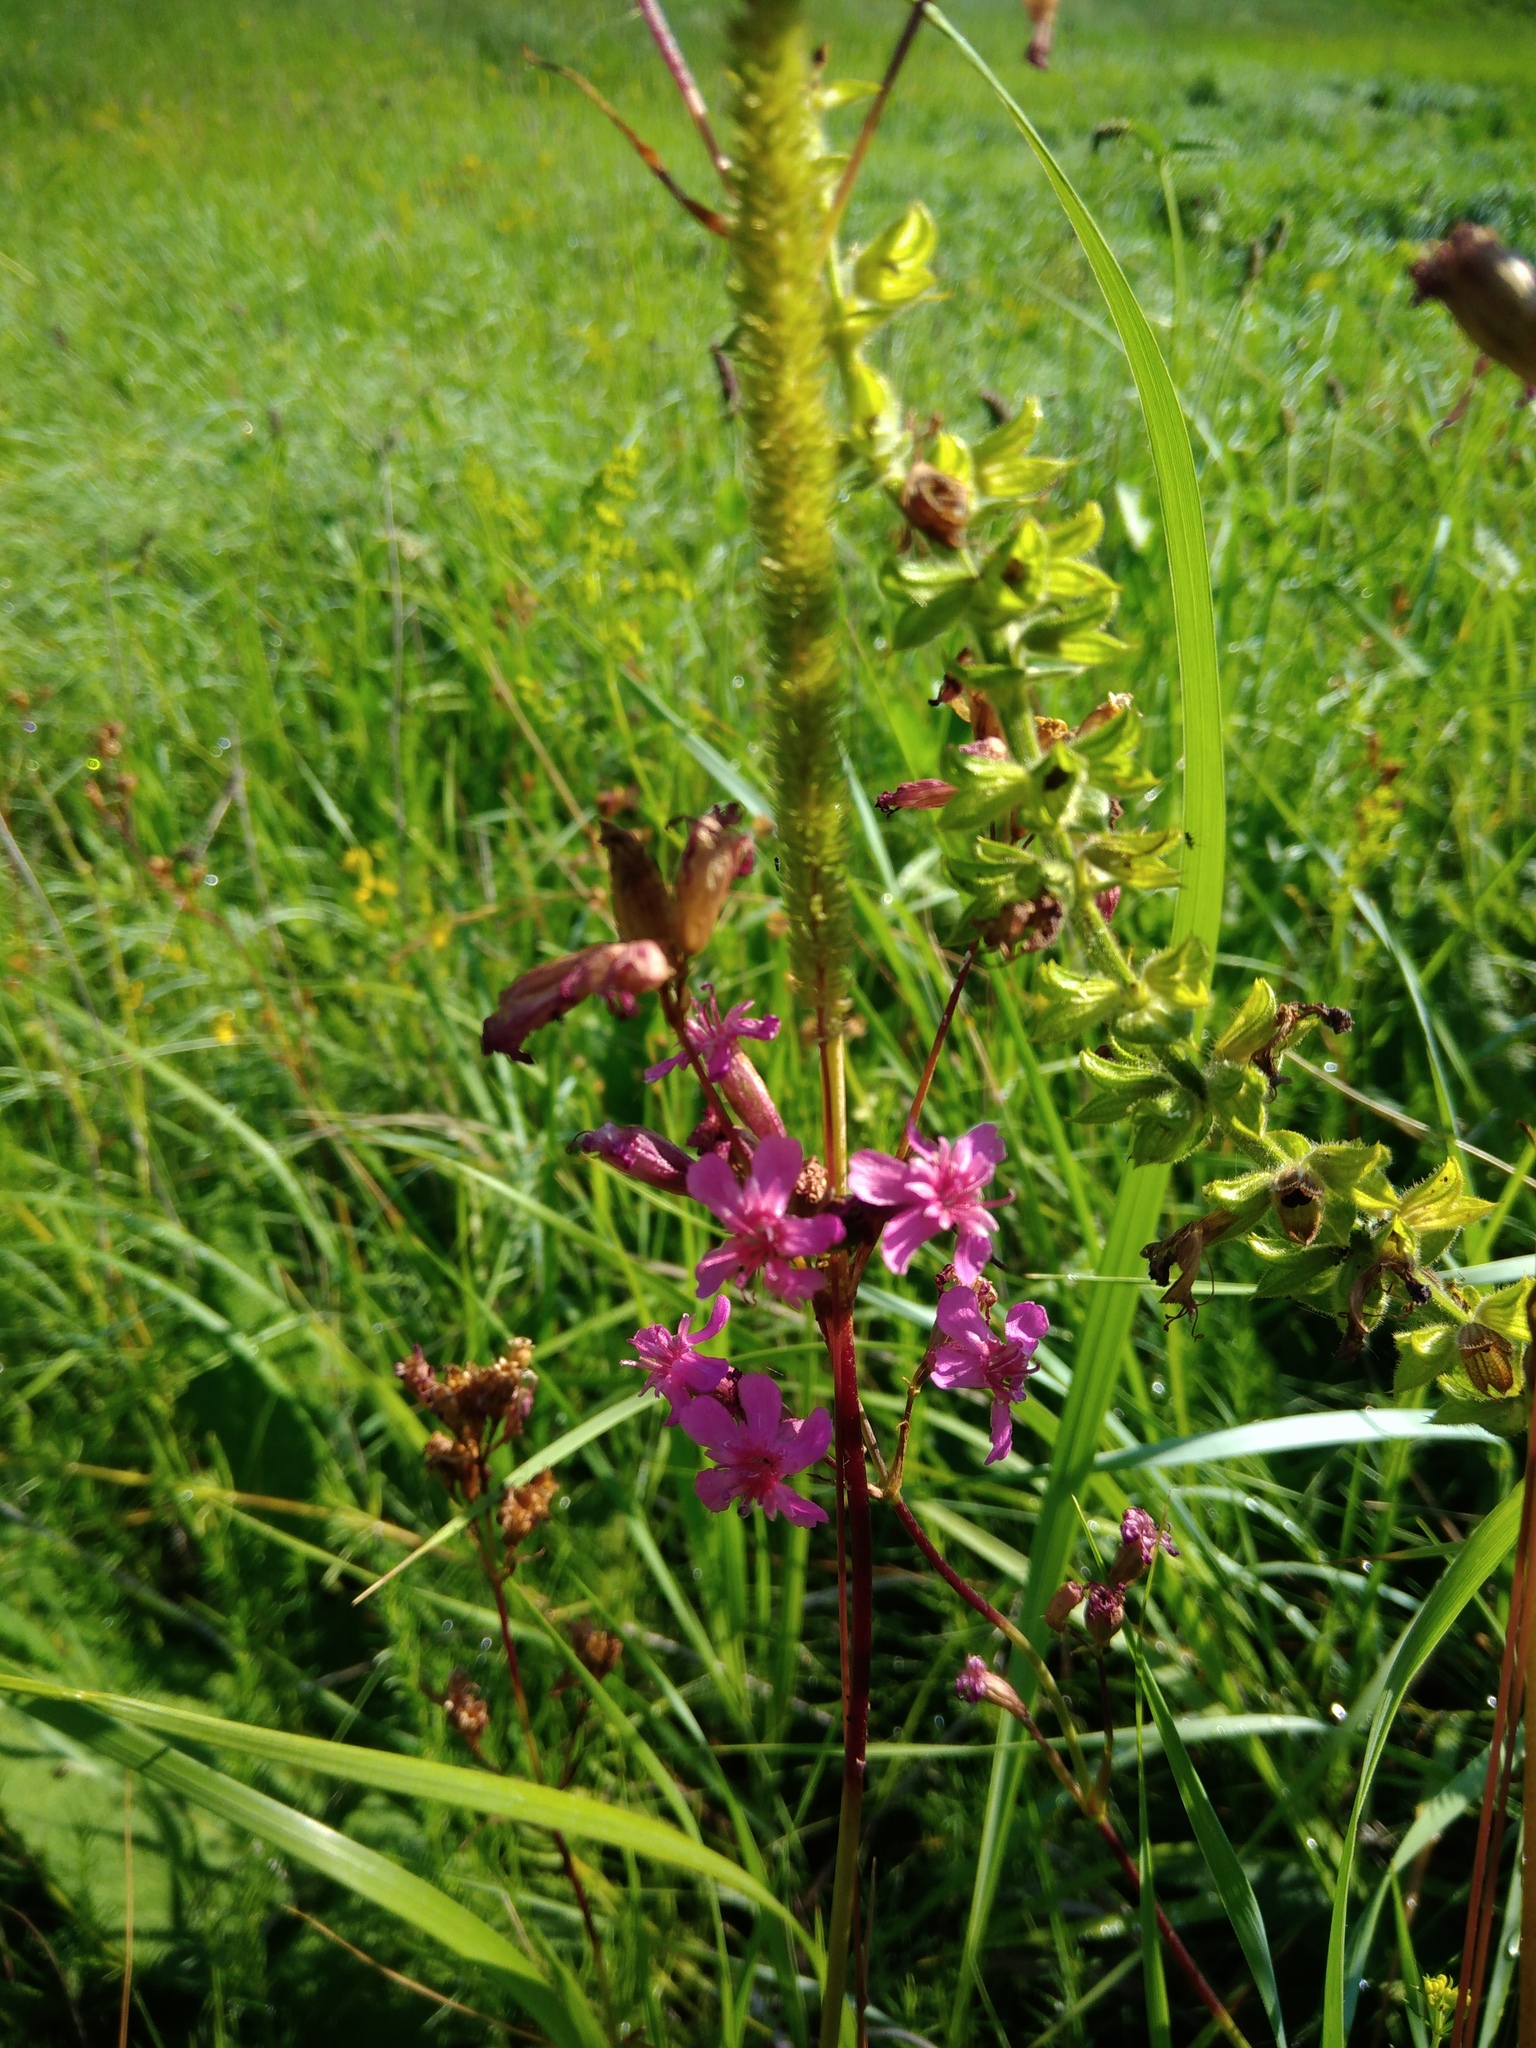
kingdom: Plantae
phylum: Tracheophyta
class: Magnoliopsida
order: Caryophyllales
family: Caryophyllaceae
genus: Viscaria
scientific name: Viscaria vulgaris
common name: Clammy campion
